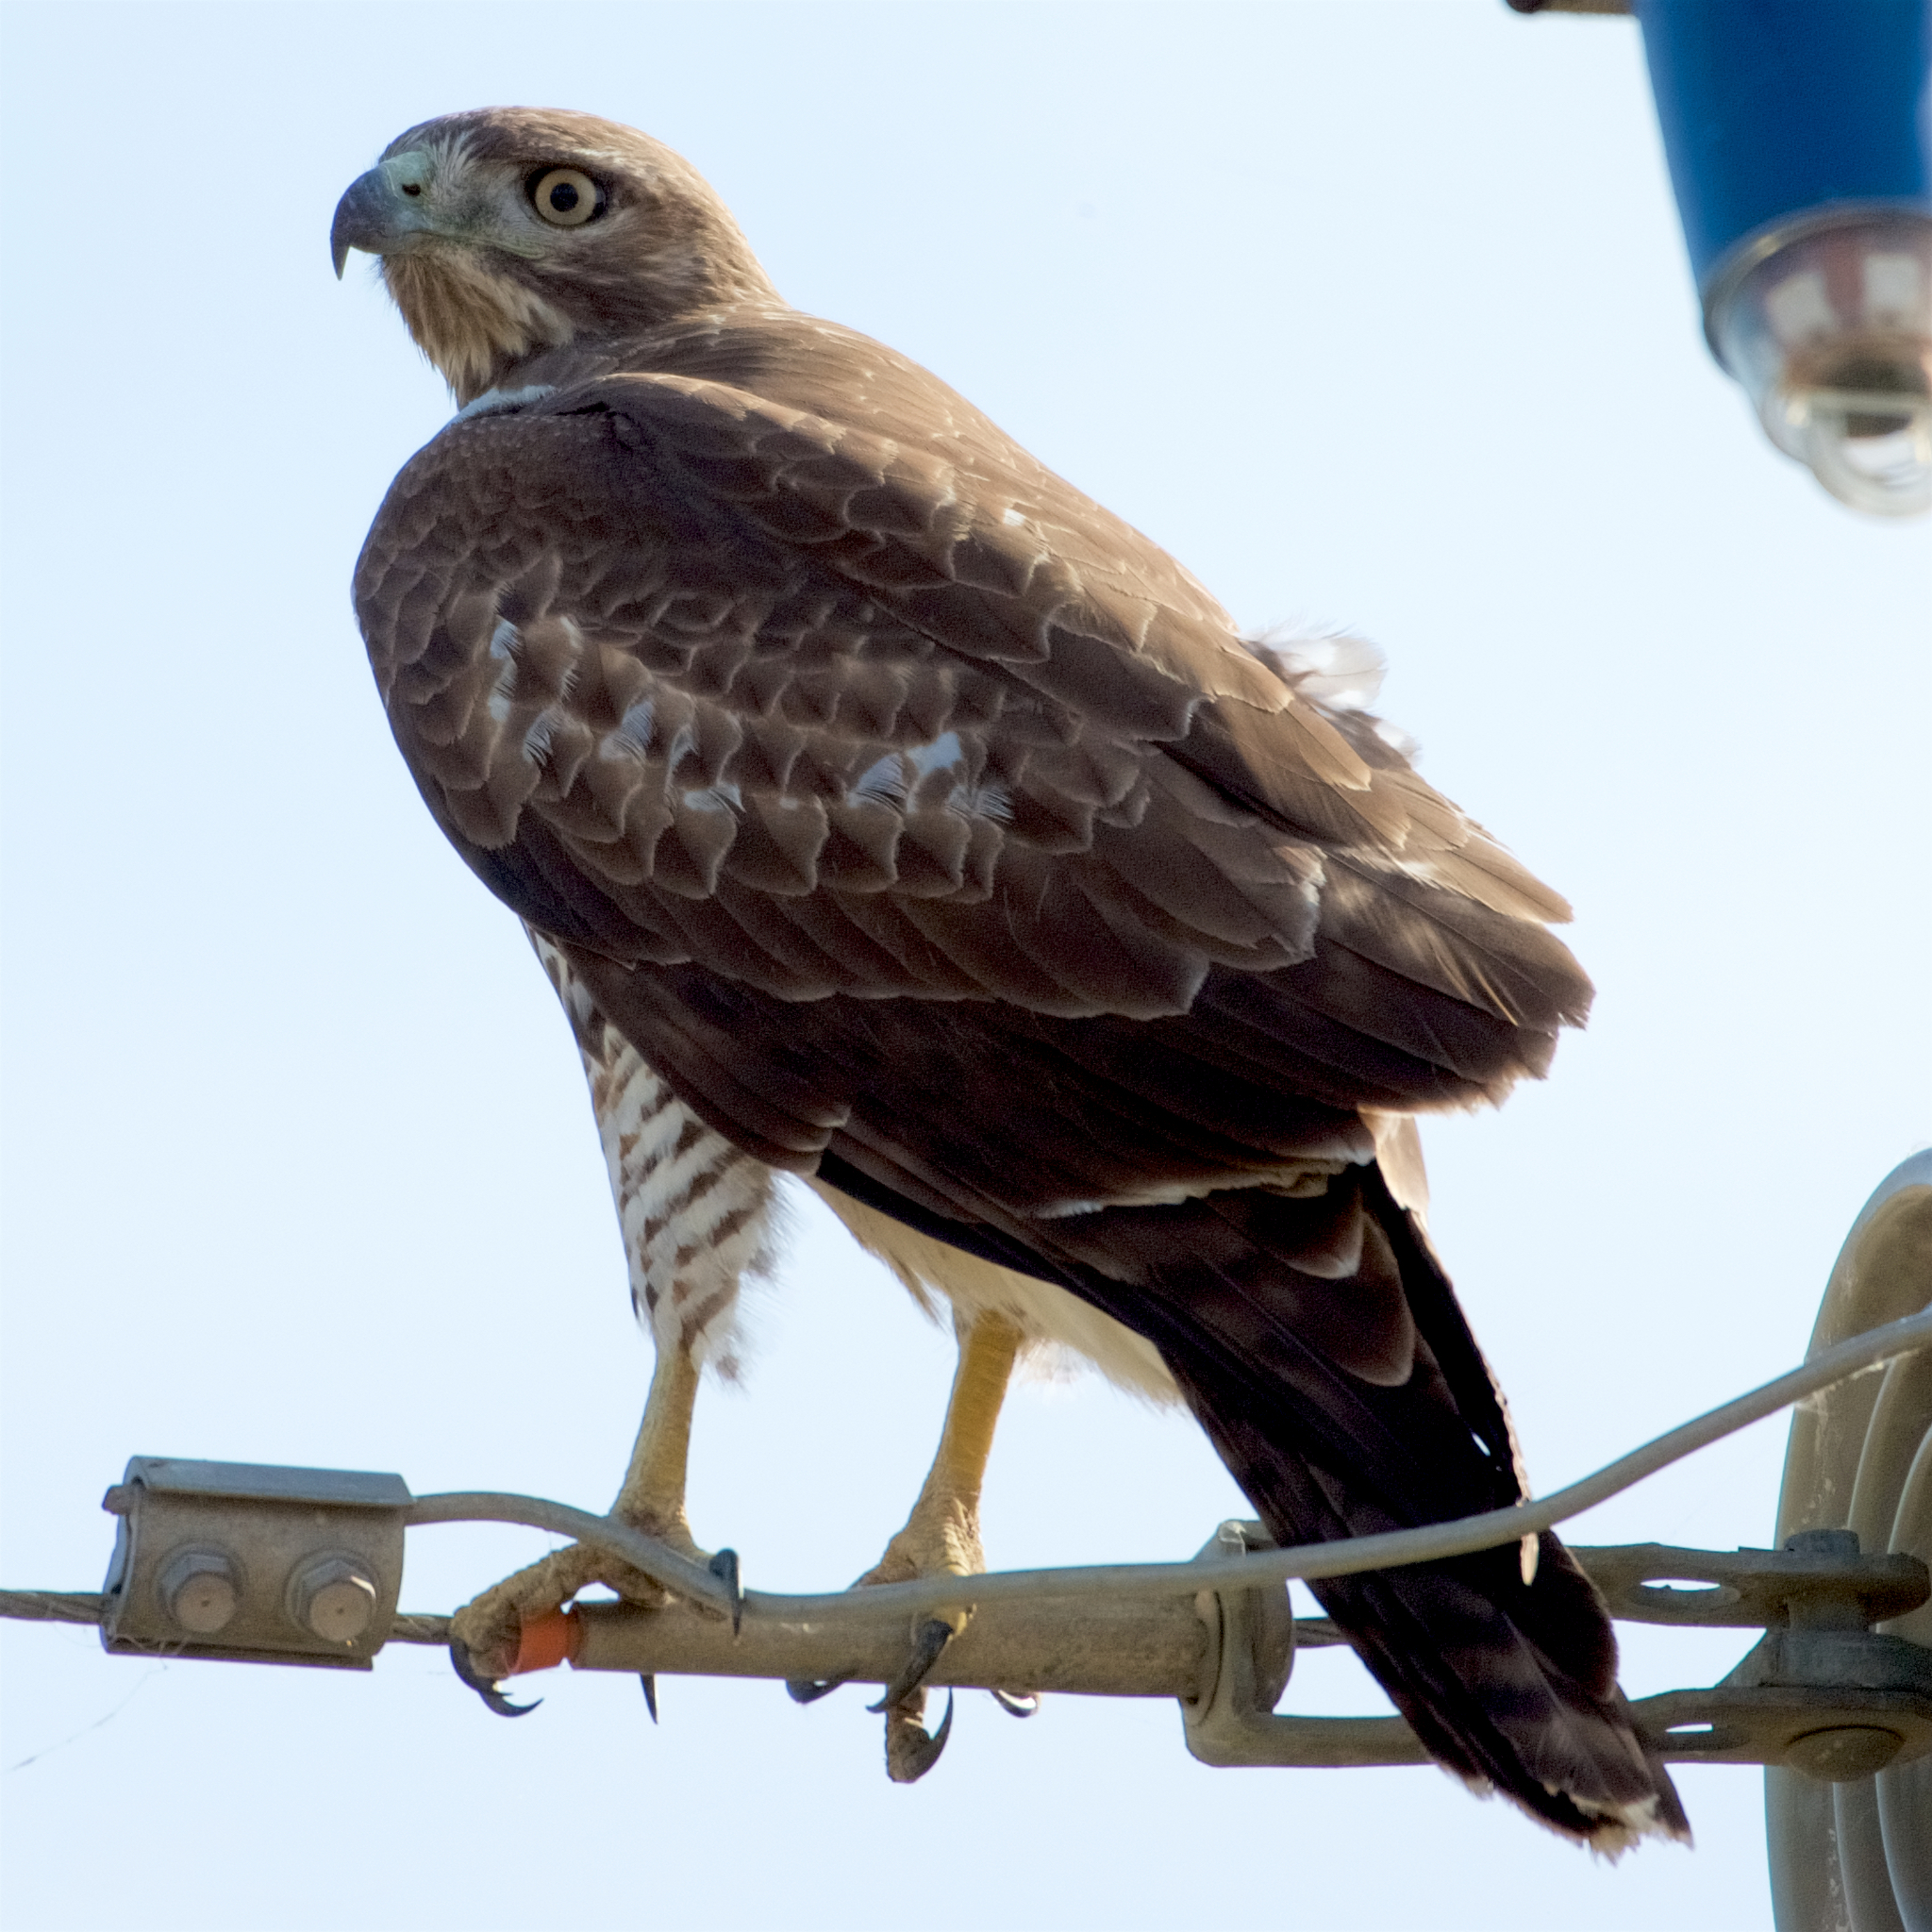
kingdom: Animalia
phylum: Chordata
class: Aves
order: Accipitriformes
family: Accipitridae
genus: Buteo
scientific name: Buteo jamaicensis
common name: Red-tailed hawk
